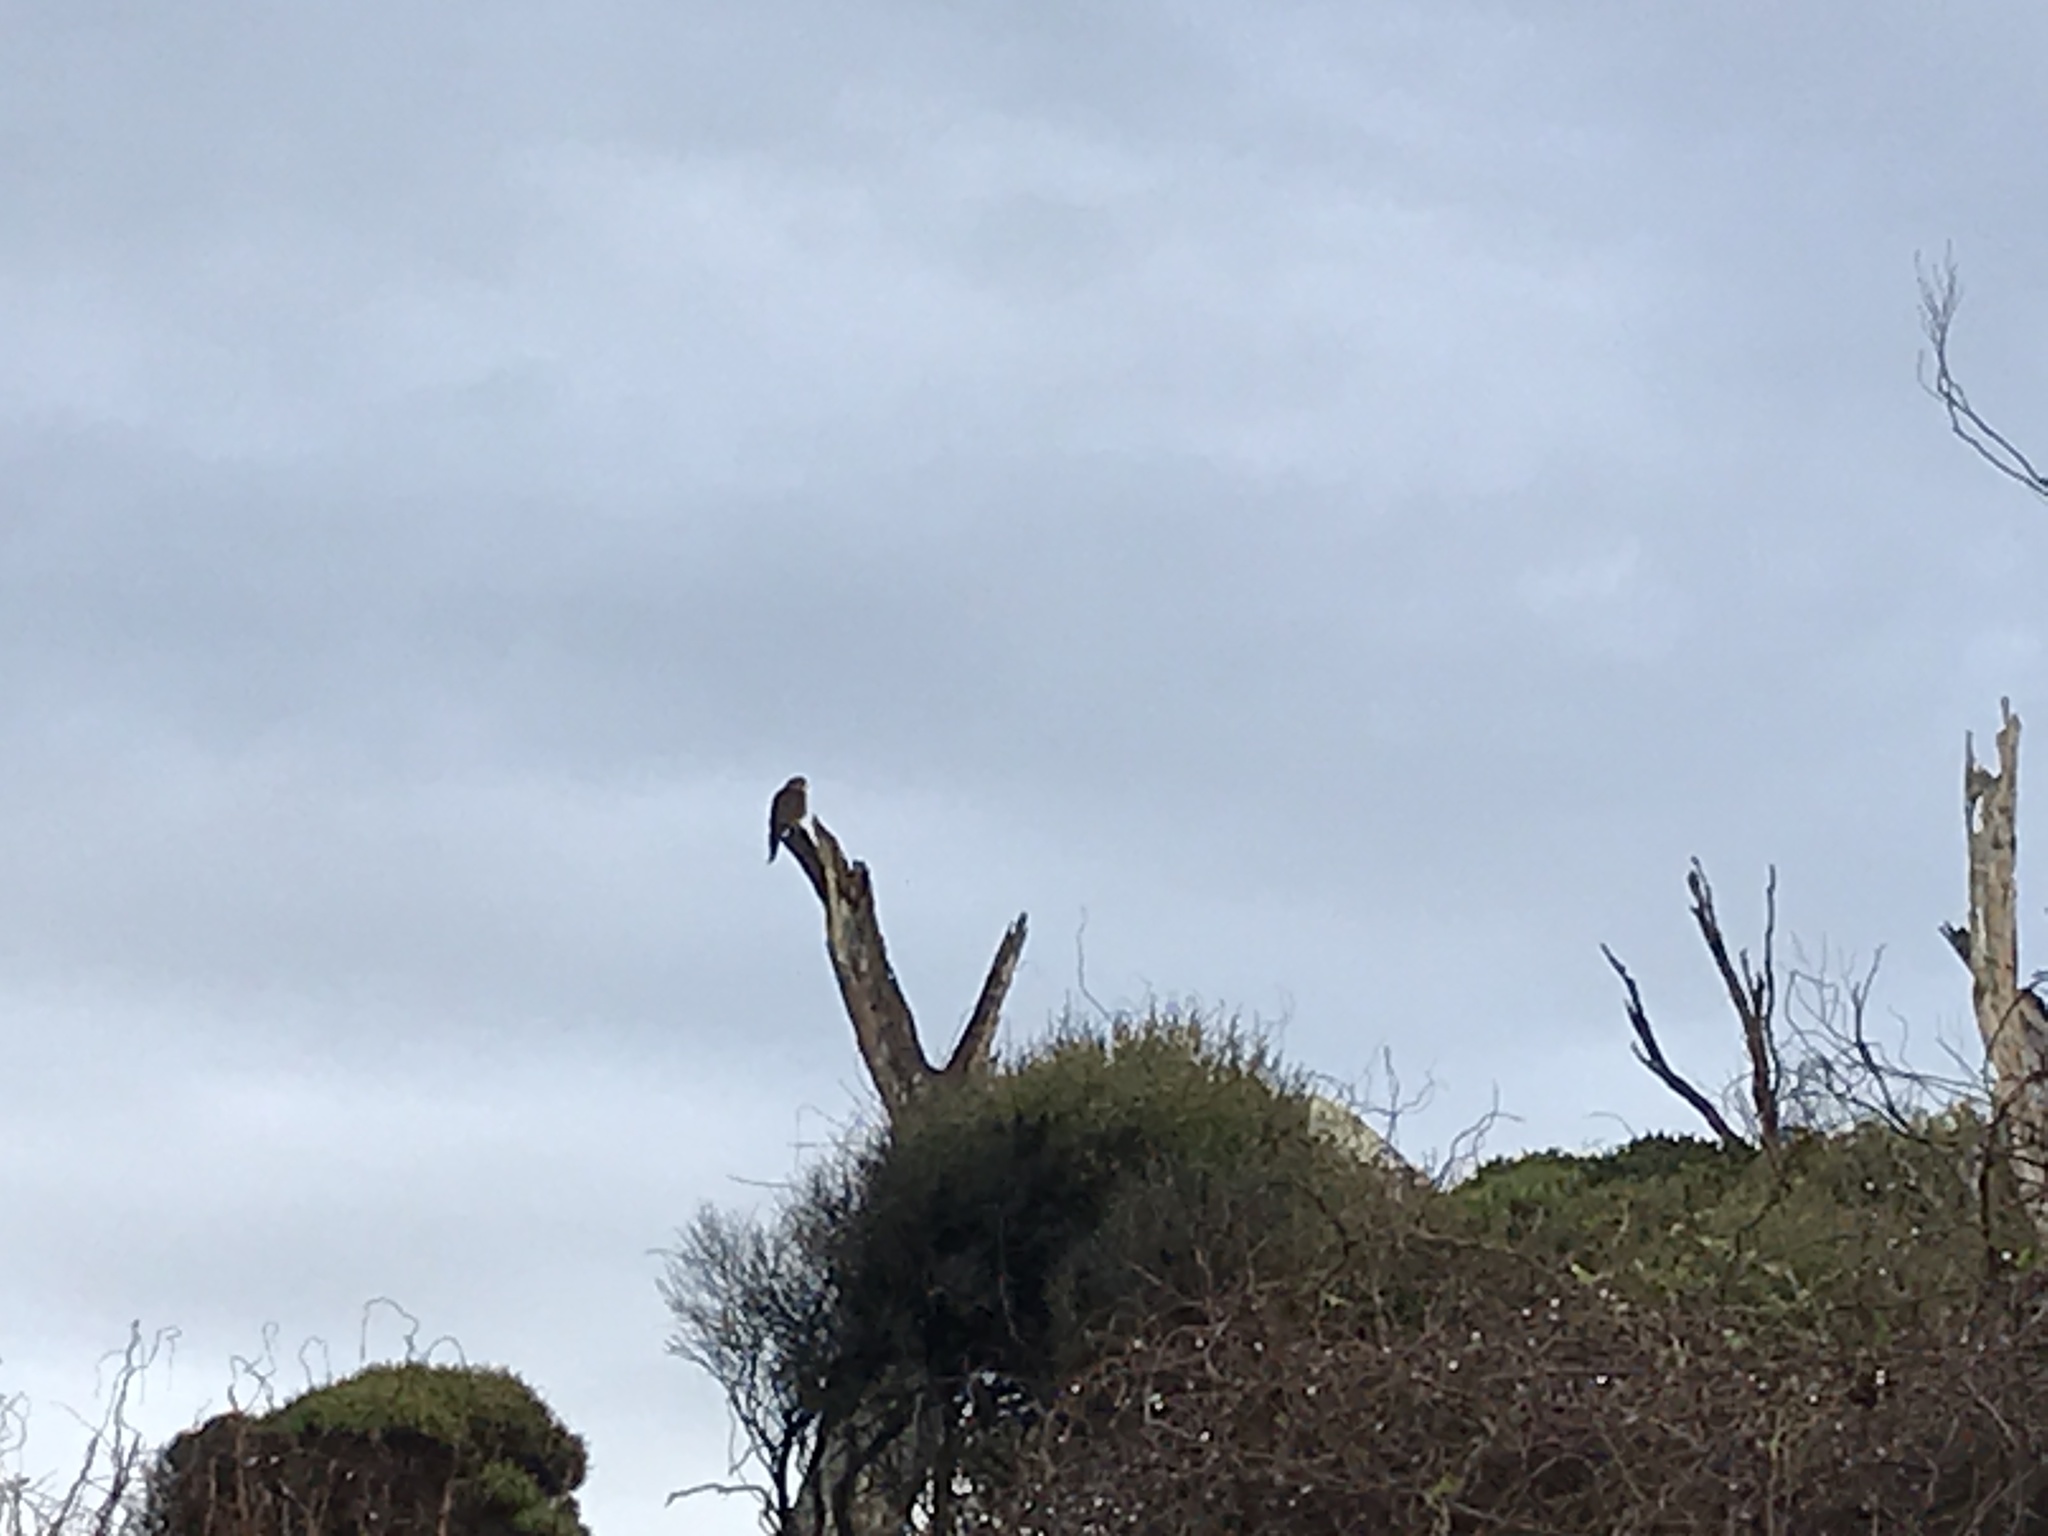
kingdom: Animalia
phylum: Chordata
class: Aves
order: Falconiformes
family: Falconidae
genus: Falco
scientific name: Falco novaeseelandiae
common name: New zealand falcon
